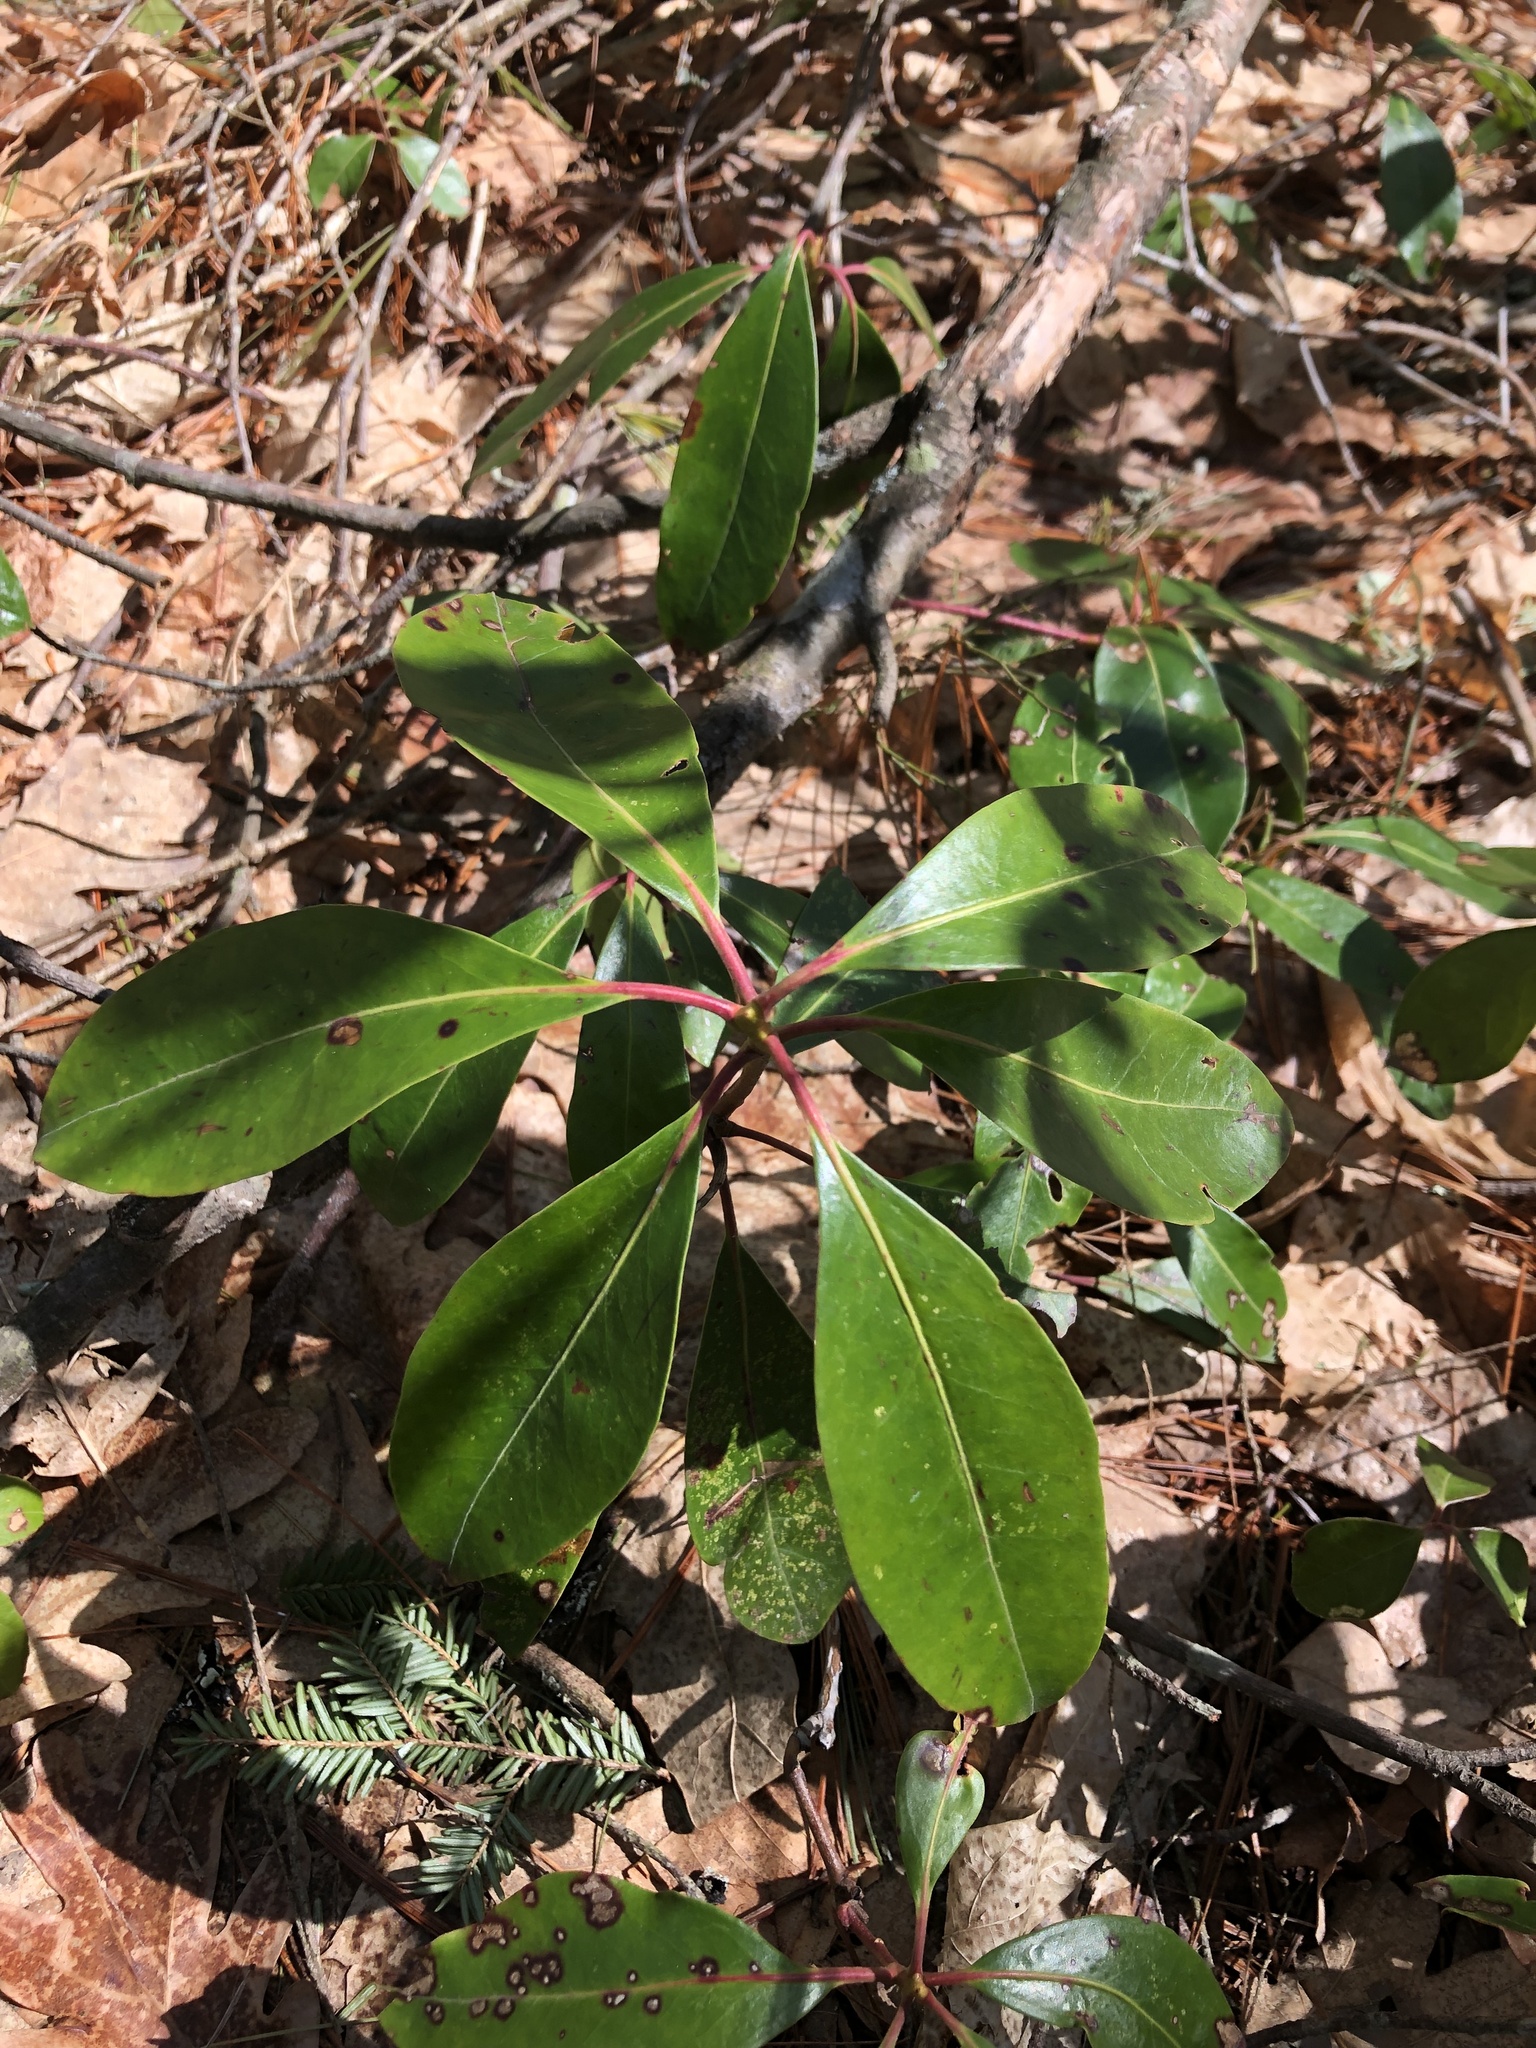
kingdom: Plantae
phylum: Tracheophyta
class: Magnoliopsida
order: Ericales
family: Ericaceae
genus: Kalmia
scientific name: Kalmia latifolia
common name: Mountain-laurel
